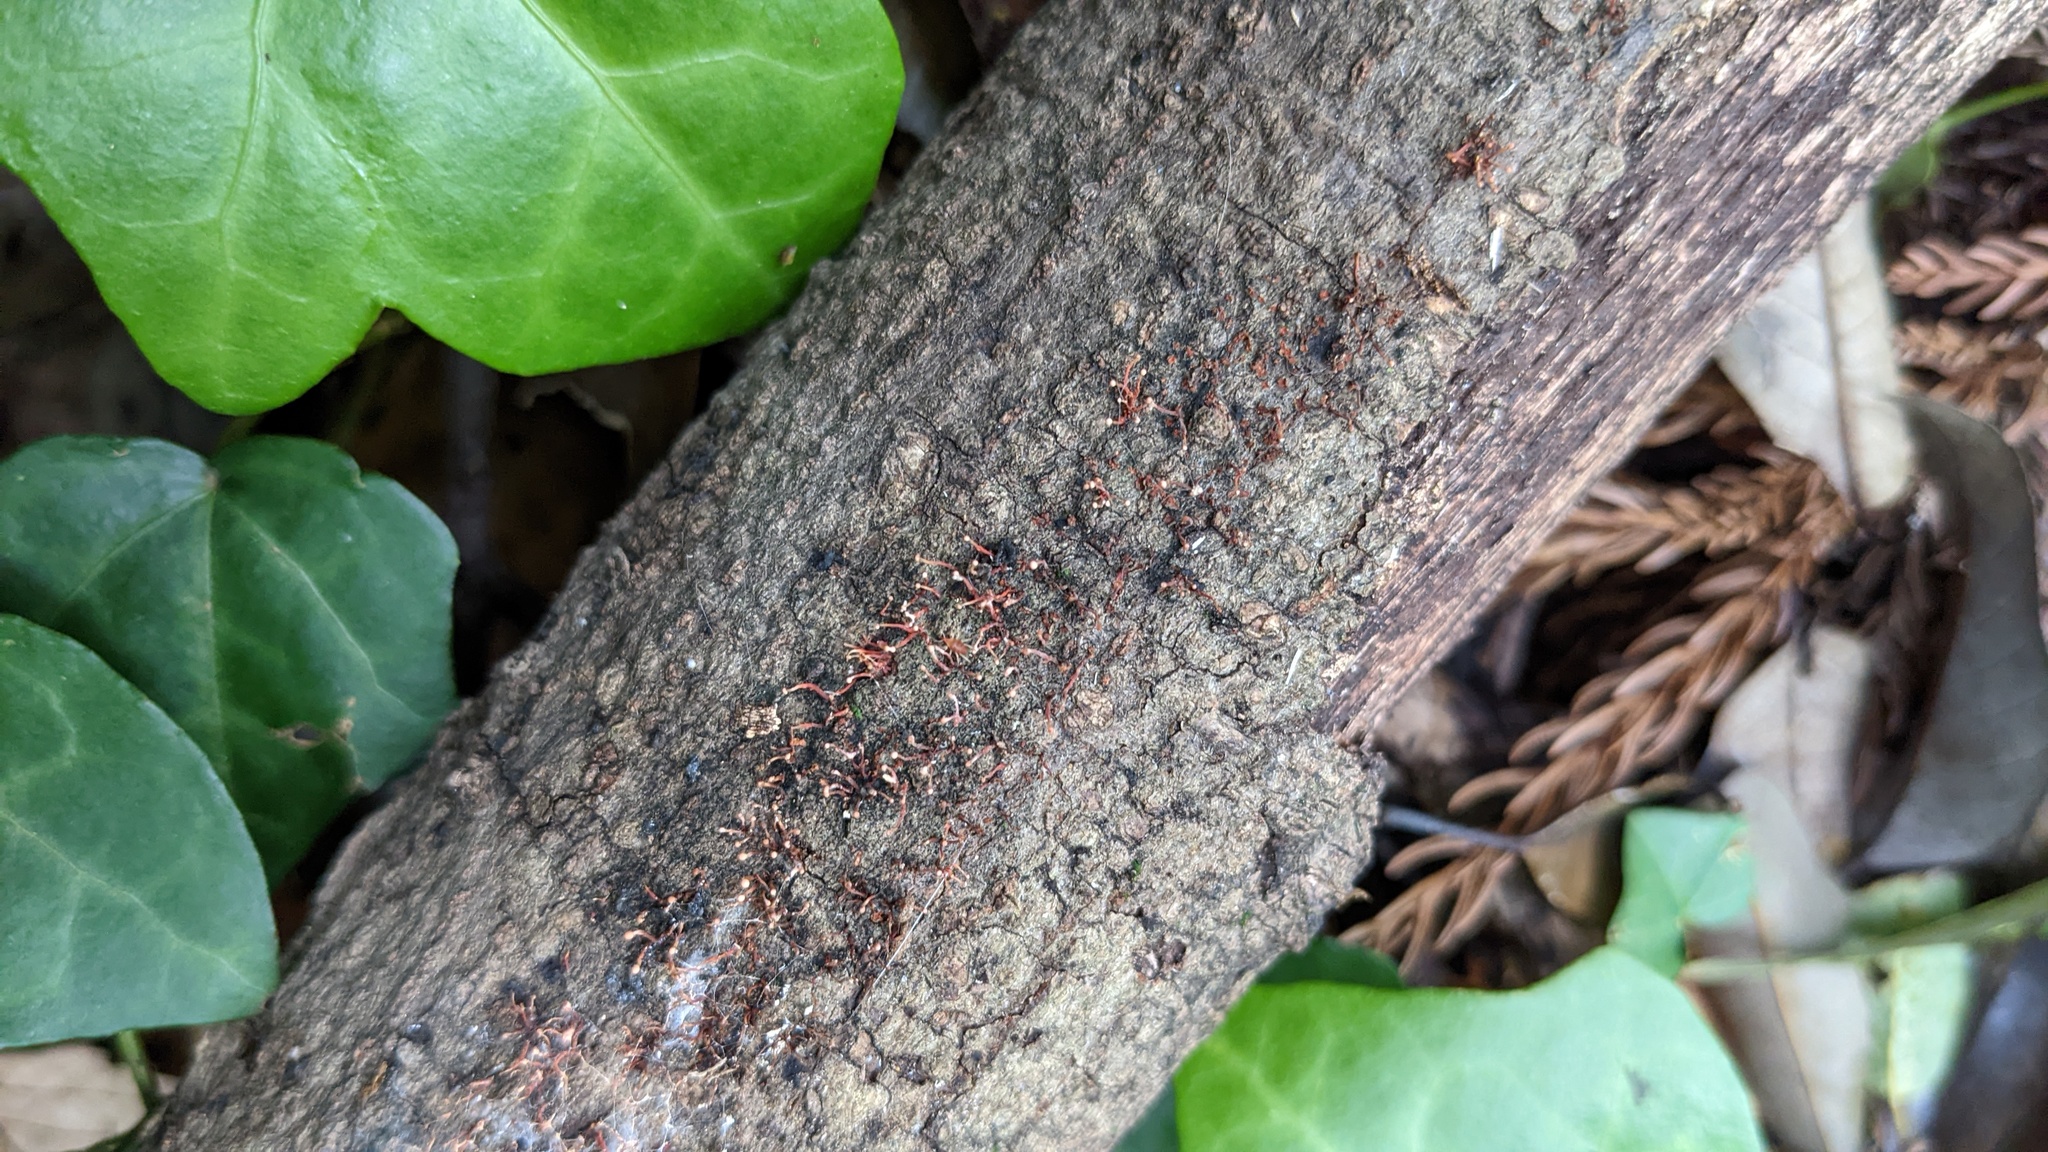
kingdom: Fungi
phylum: Ascomycota
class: Sordariomycetes
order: Hypocreales
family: Nectriaceae
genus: Nectria
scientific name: Nectria pseudotrichia
